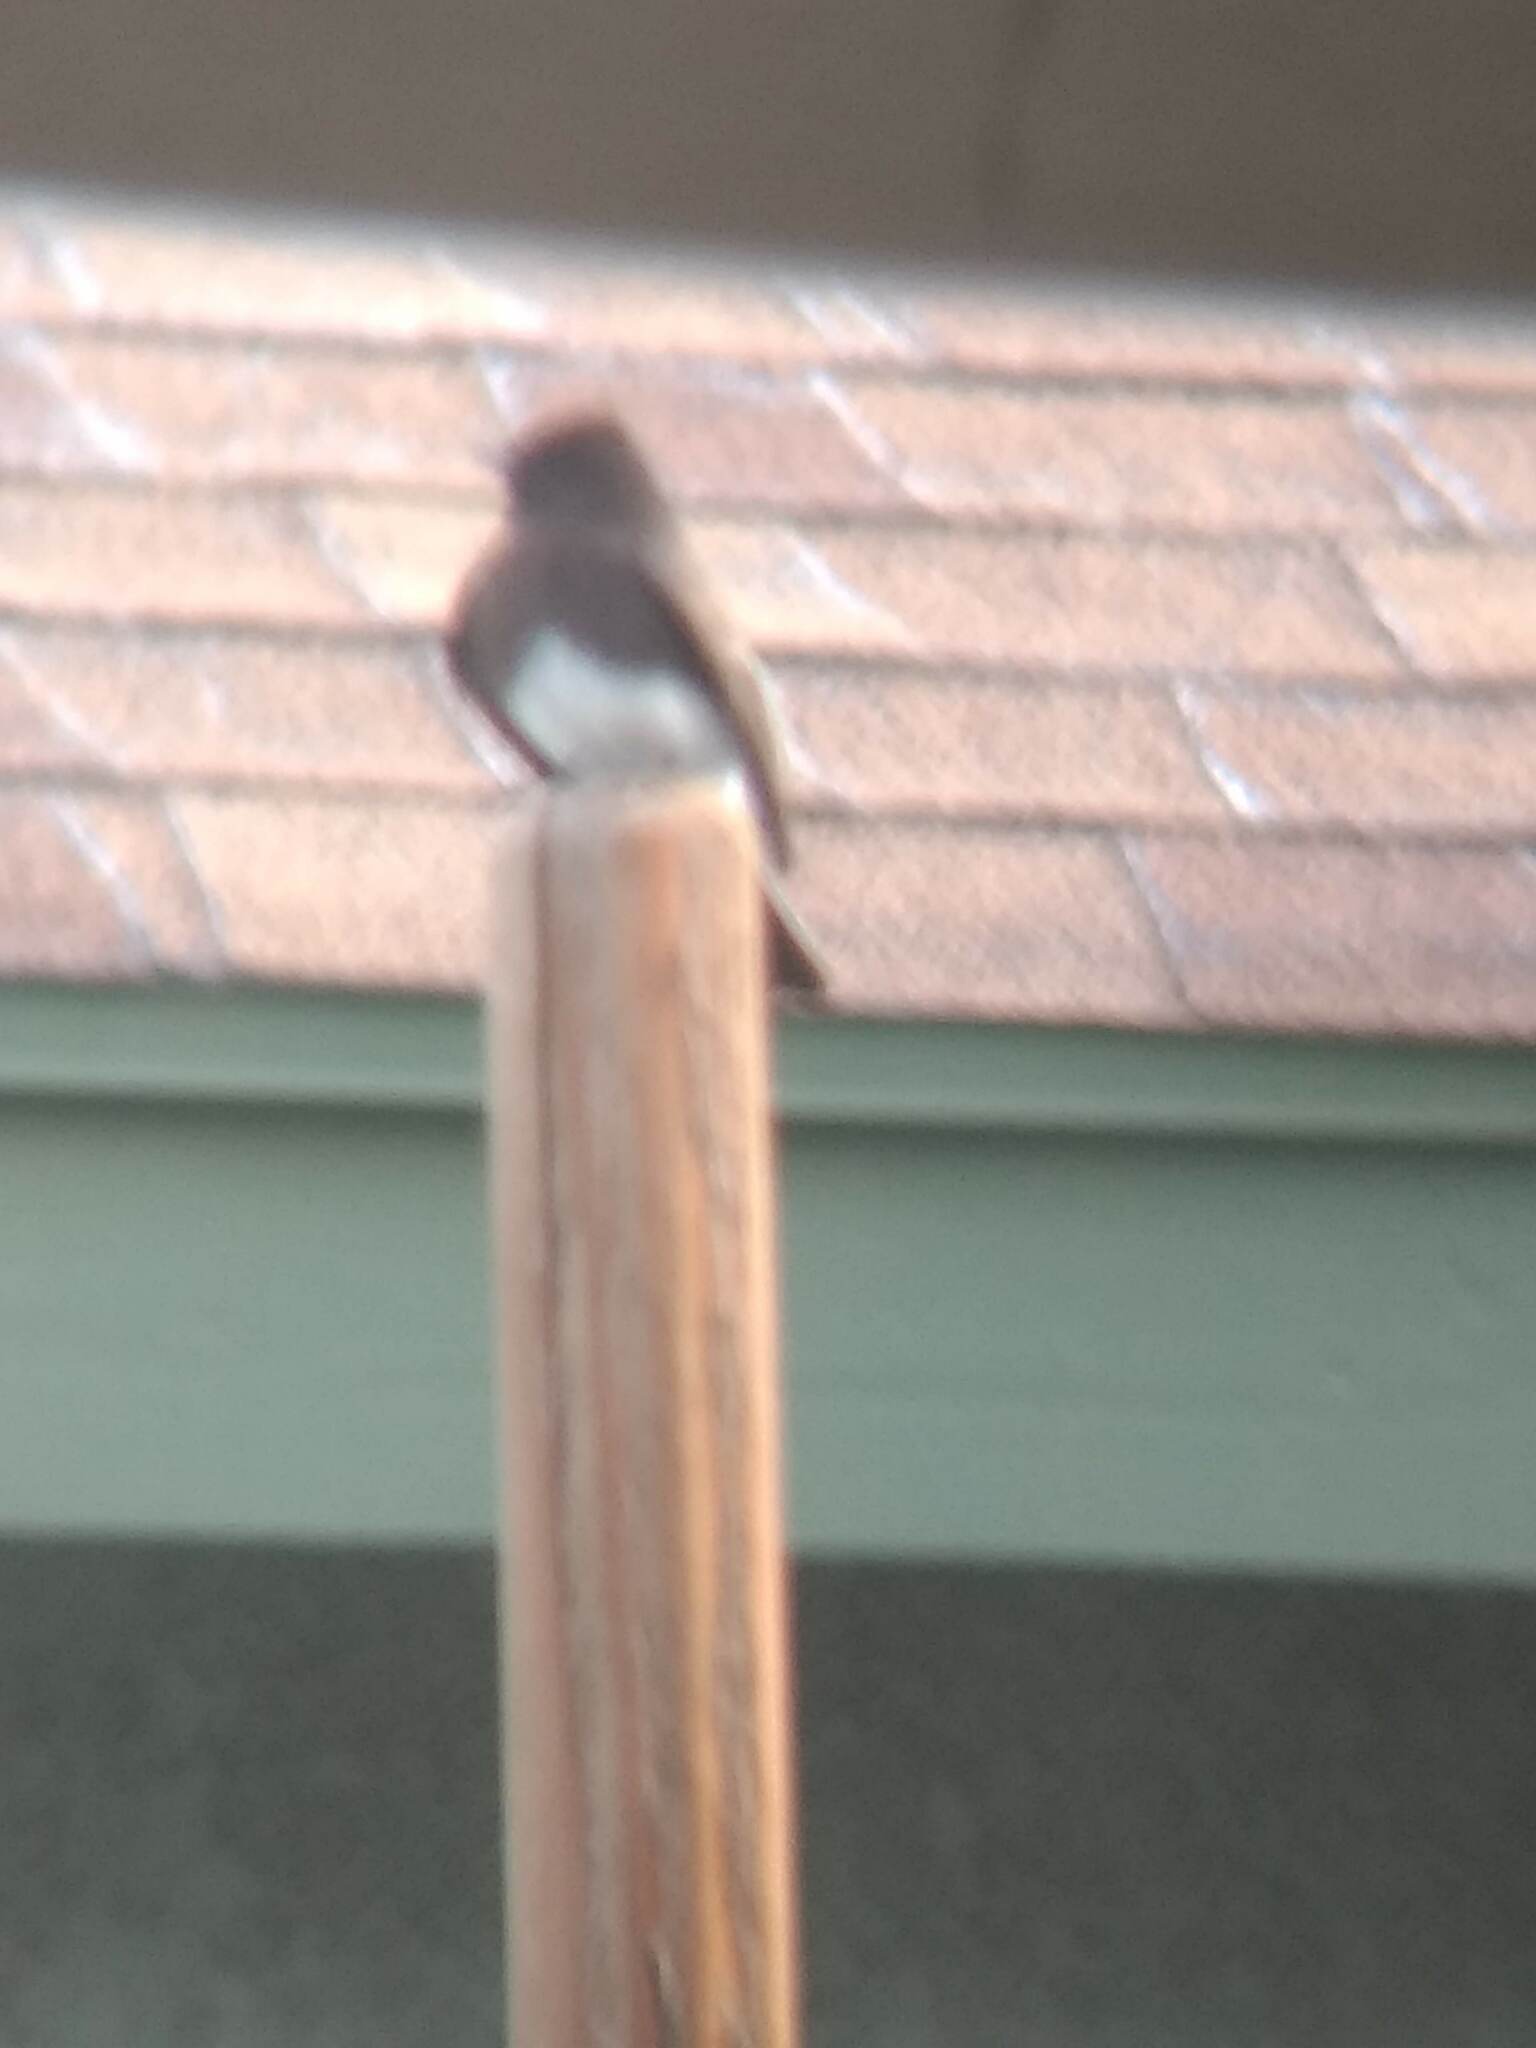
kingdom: Animalia
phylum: Chordata
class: Aves
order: Passeriformes
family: Tyrannidae
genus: Sayornis
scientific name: Sayornis nigricans
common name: Black phoebe
